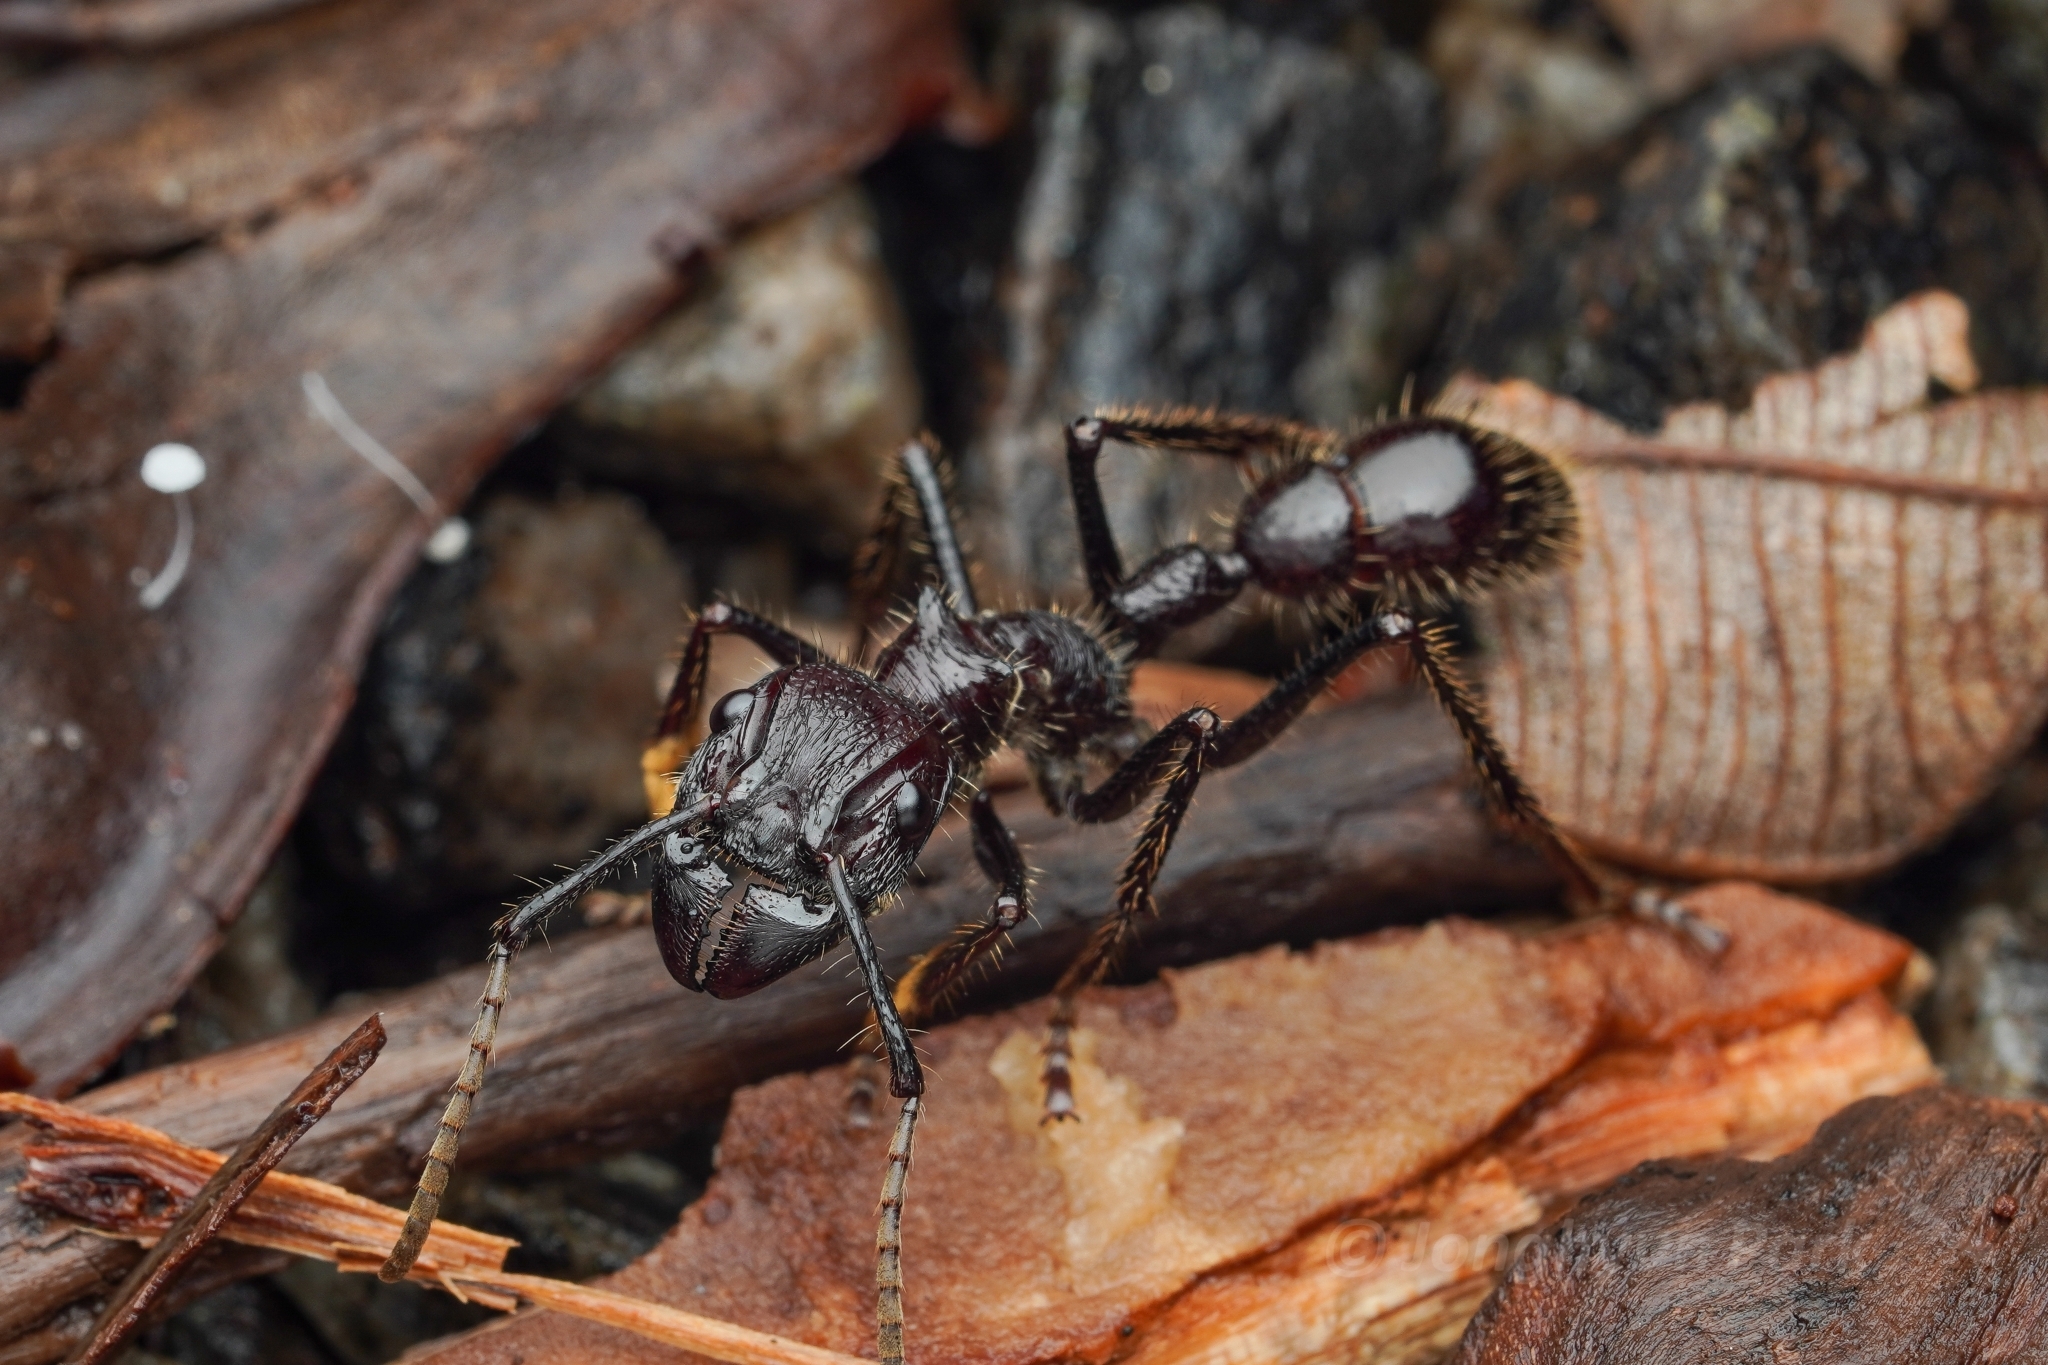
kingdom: Animalia
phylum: Arthropoda
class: Insecta
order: Hymenoptera
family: Formicidae
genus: Paraponera
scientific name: Paraponera clavata
